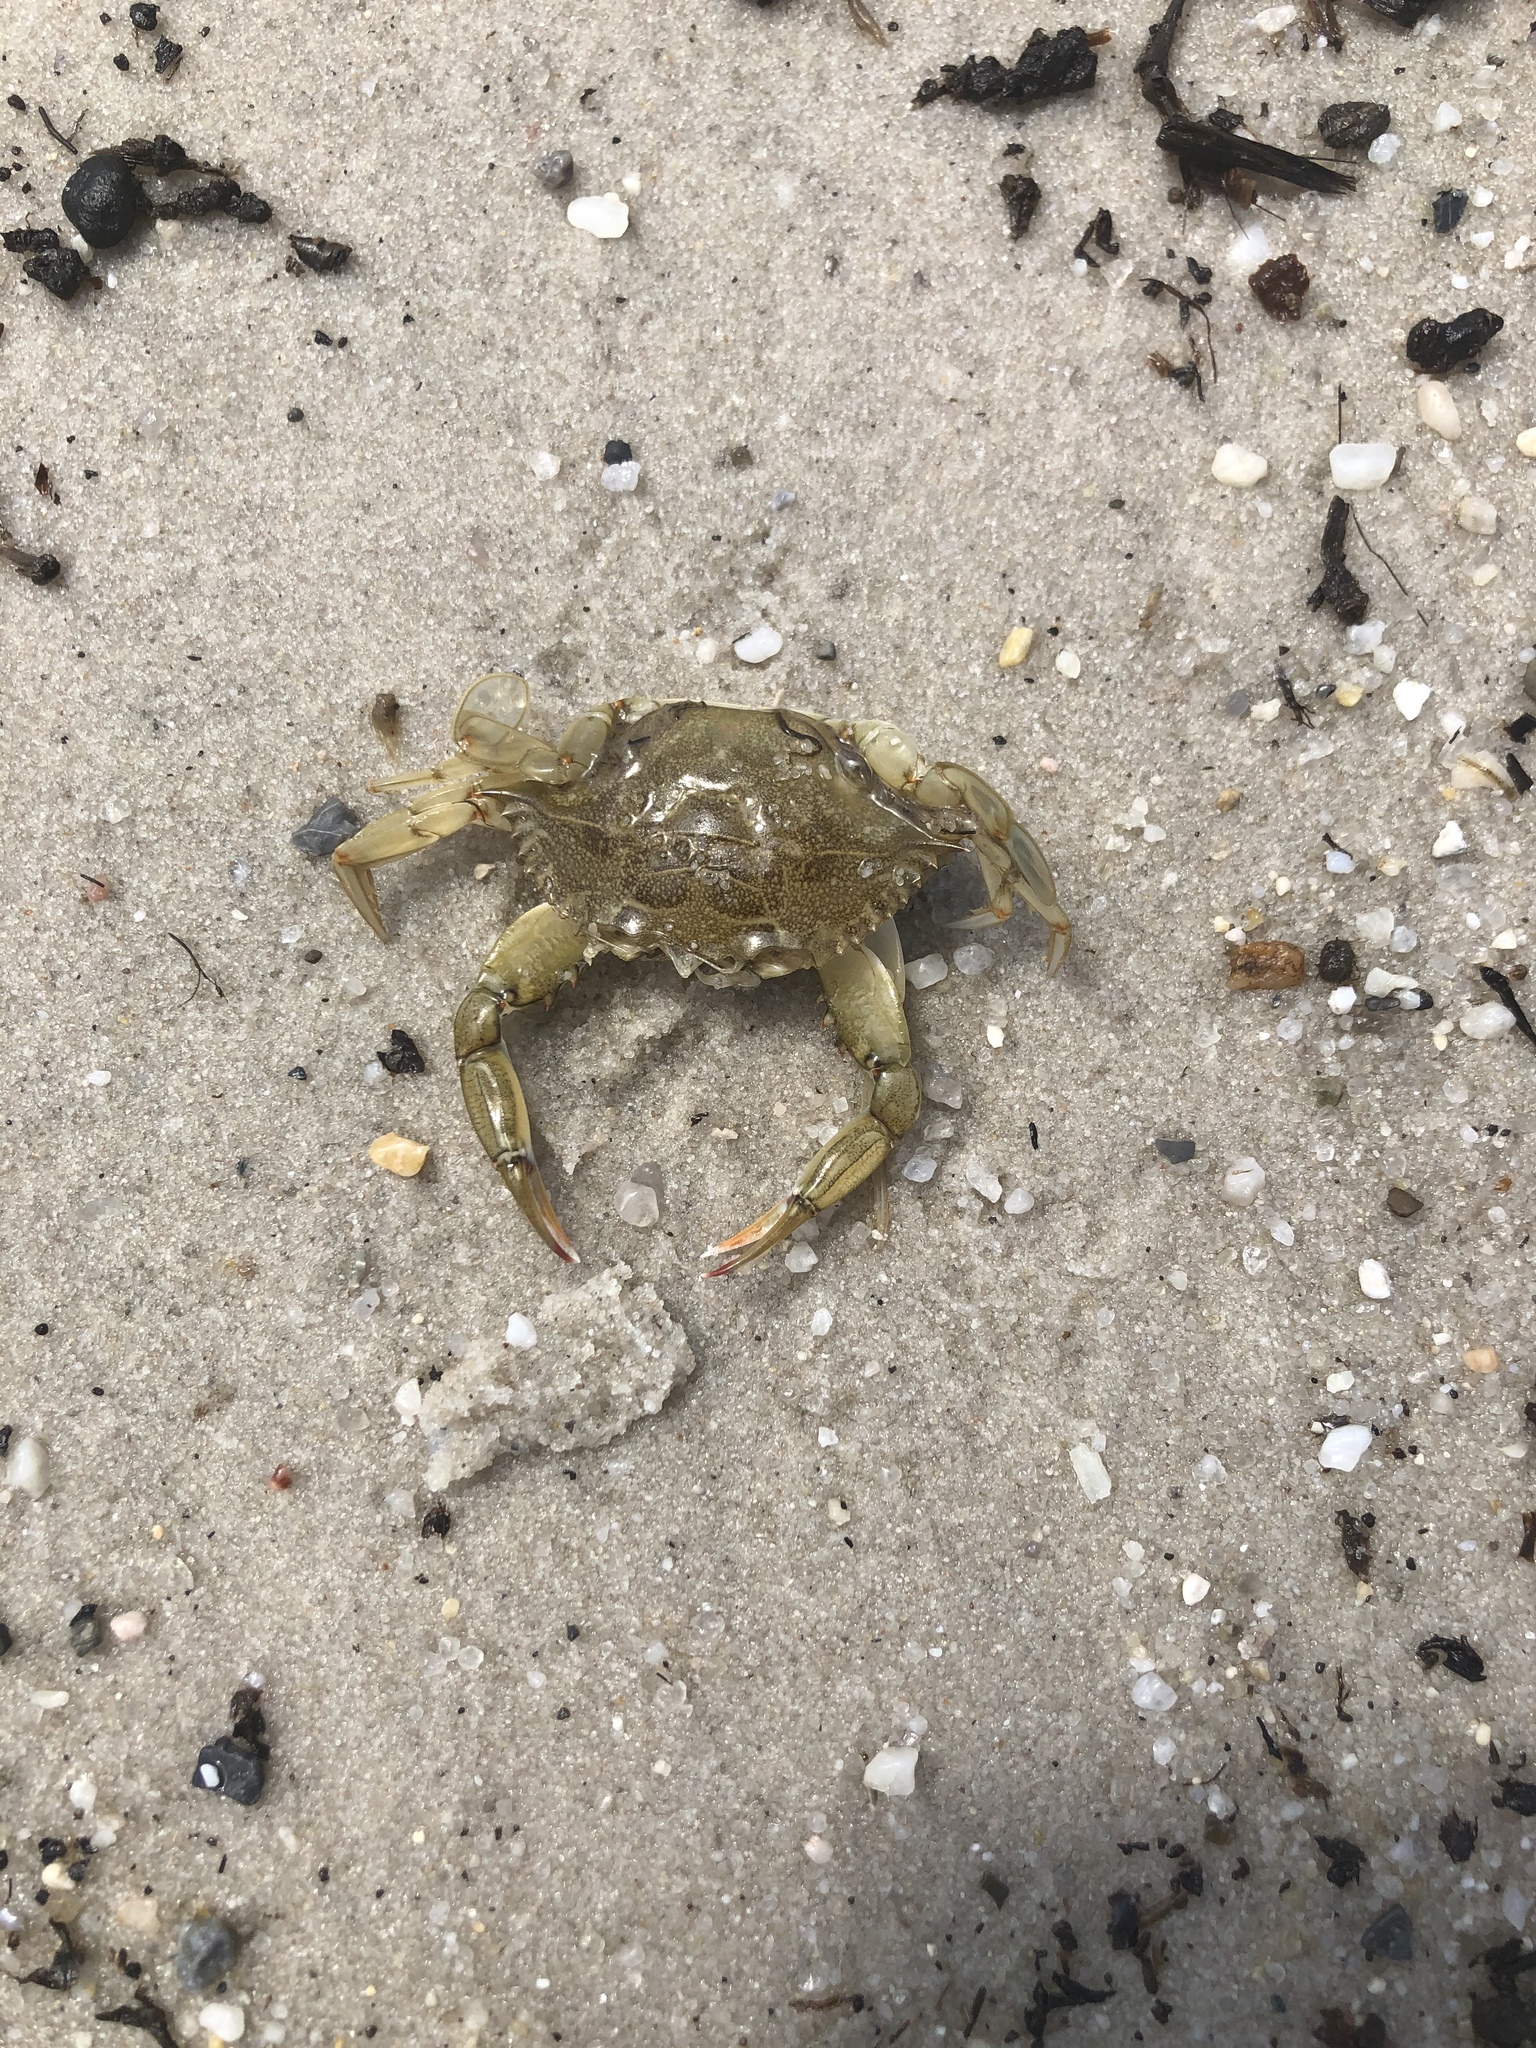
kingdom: Animalia
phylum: Arthropoda
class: Malacostraca
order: Decapoda
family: Portunidae
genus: Callinectes
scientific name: Callinectes sapidus
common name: Blue crab
